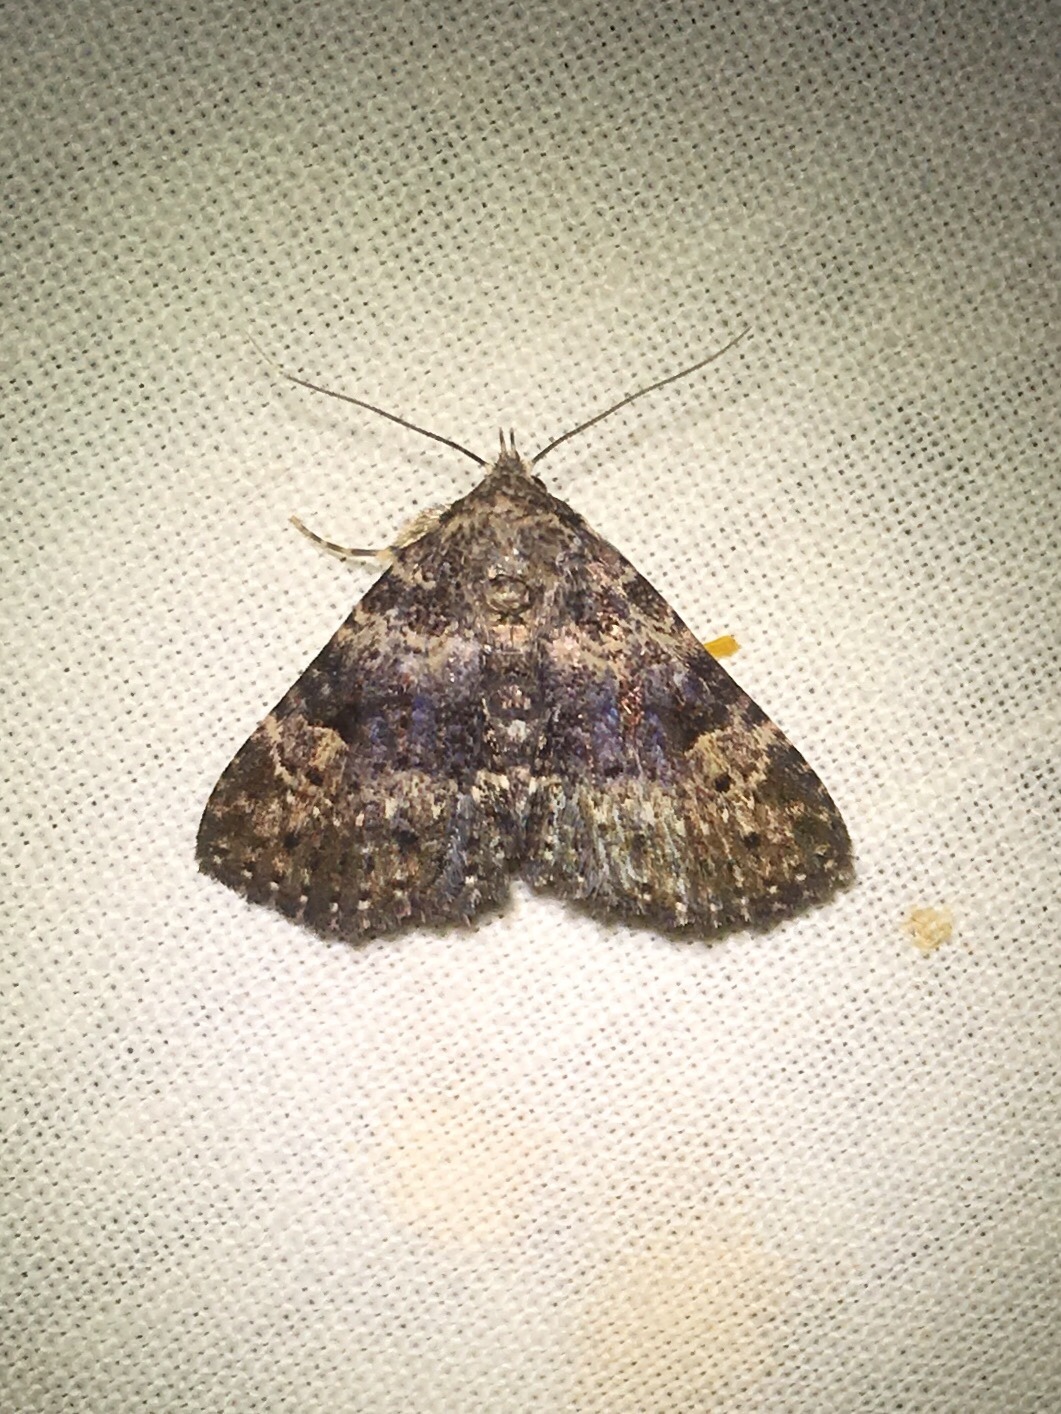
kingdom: Animalia
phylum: Arthropoda
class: Insecta
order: Lepidoptera
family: Erebidae
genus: Metalectra
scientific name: Metalectra discalis
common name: Common fungus moth
